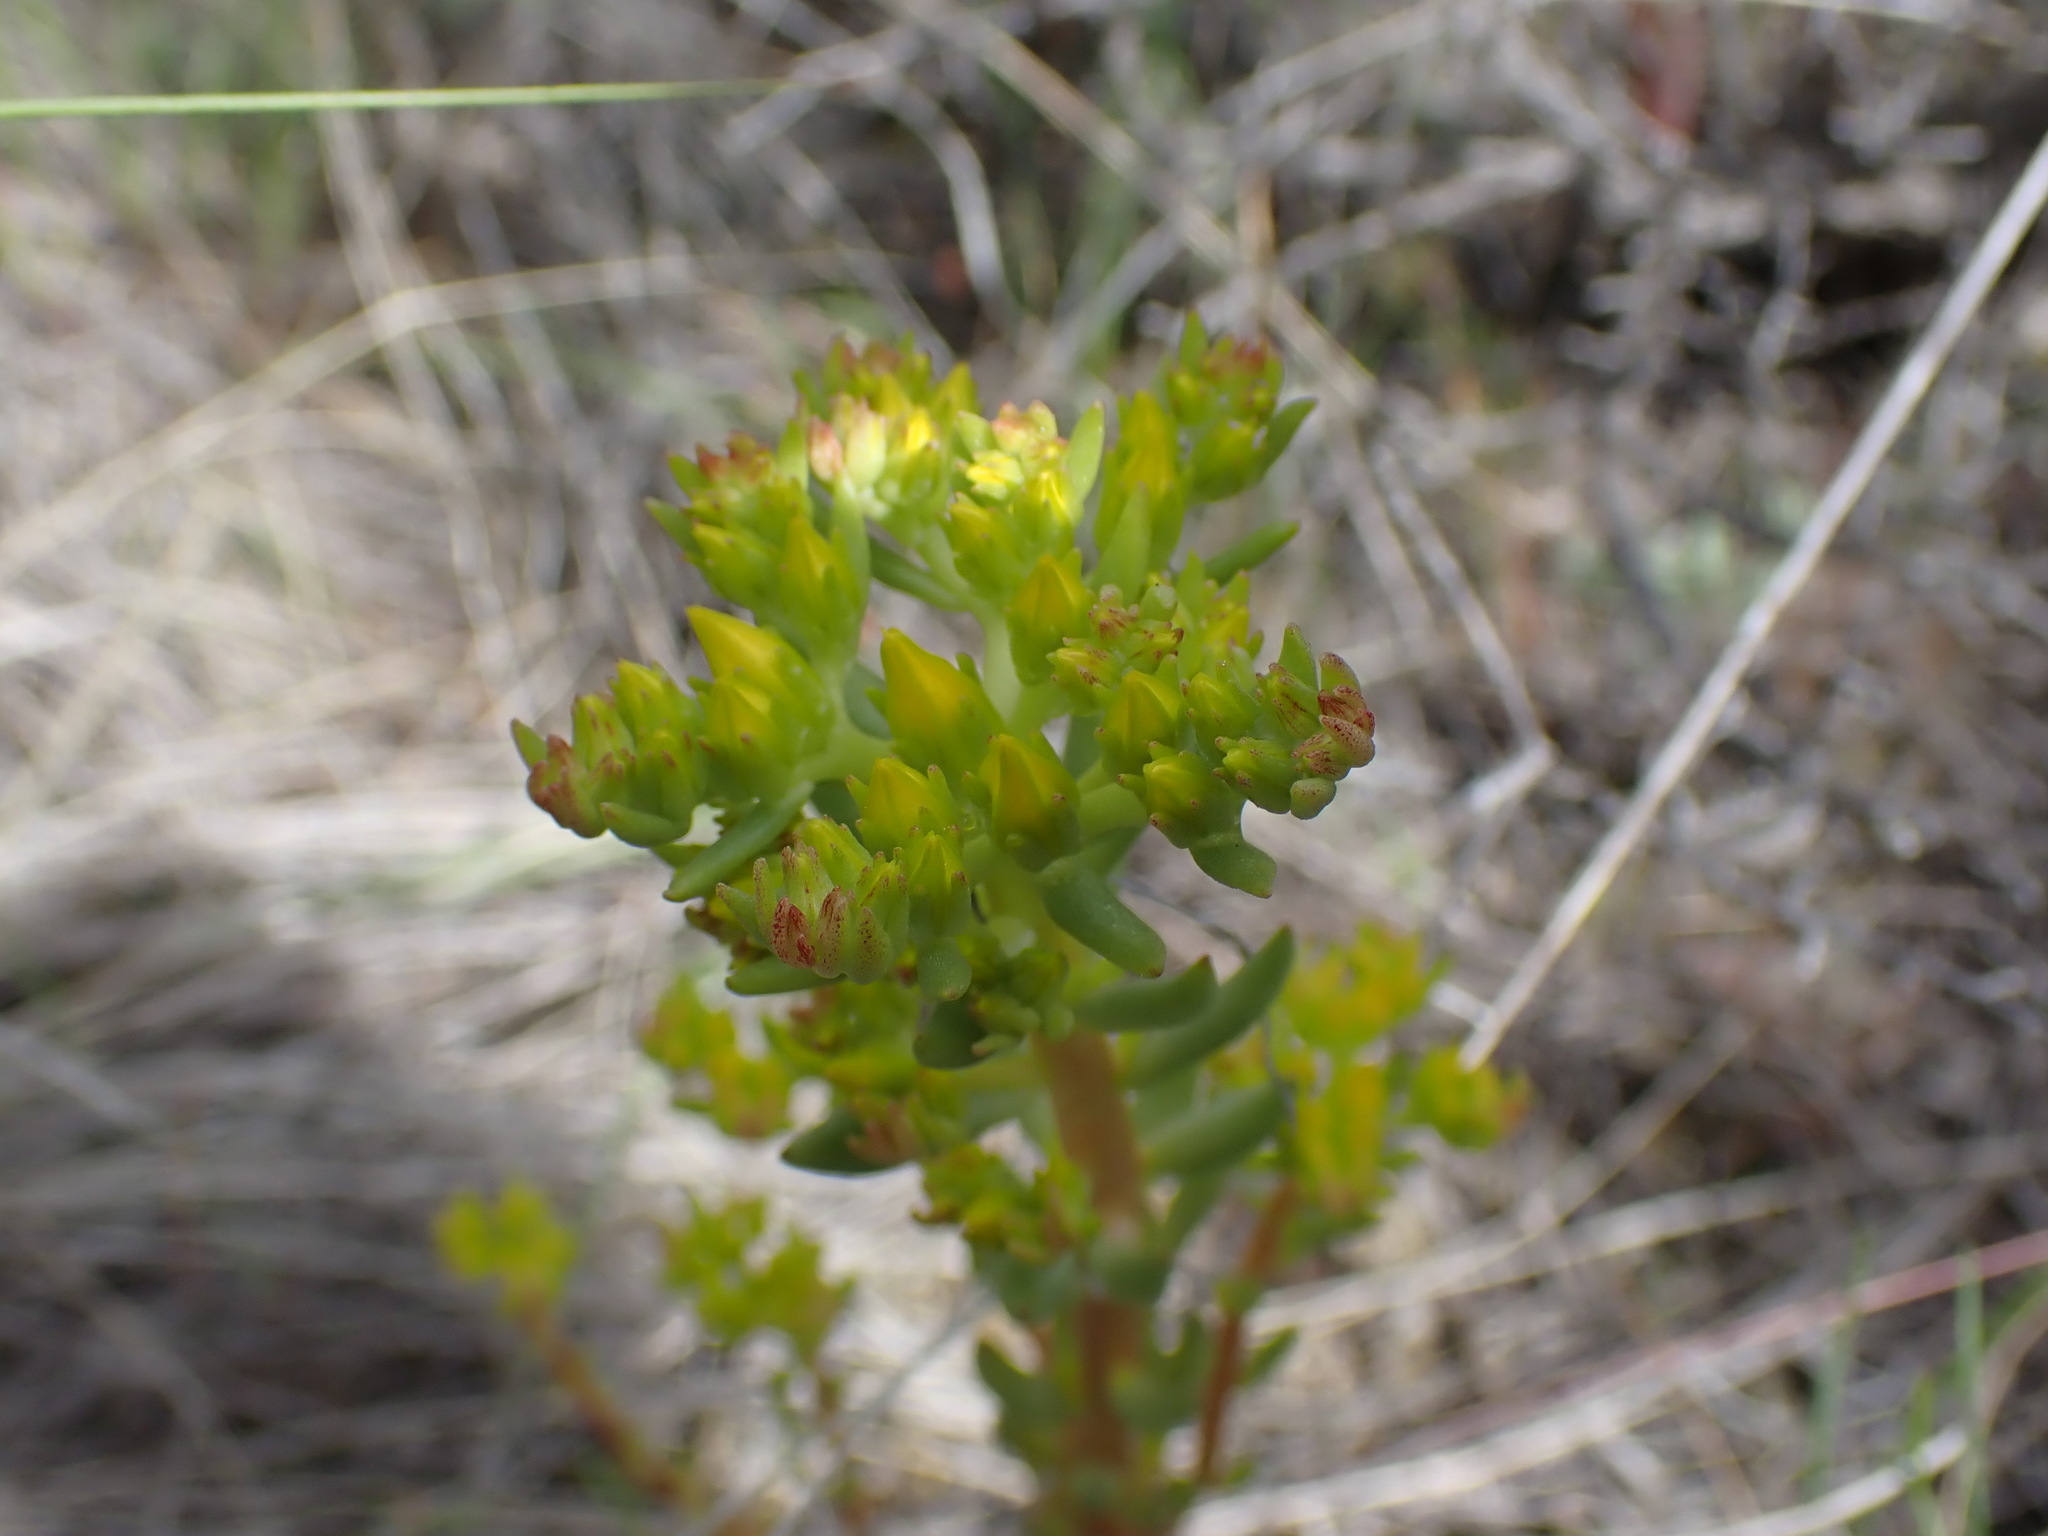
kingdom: Plantae
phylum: Tracheophyta
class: Magnoliopsida
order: Saxifragales
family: Crassulaceae
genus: Sedum
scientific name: Sedum lanceolatum
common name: Common stonecrop
